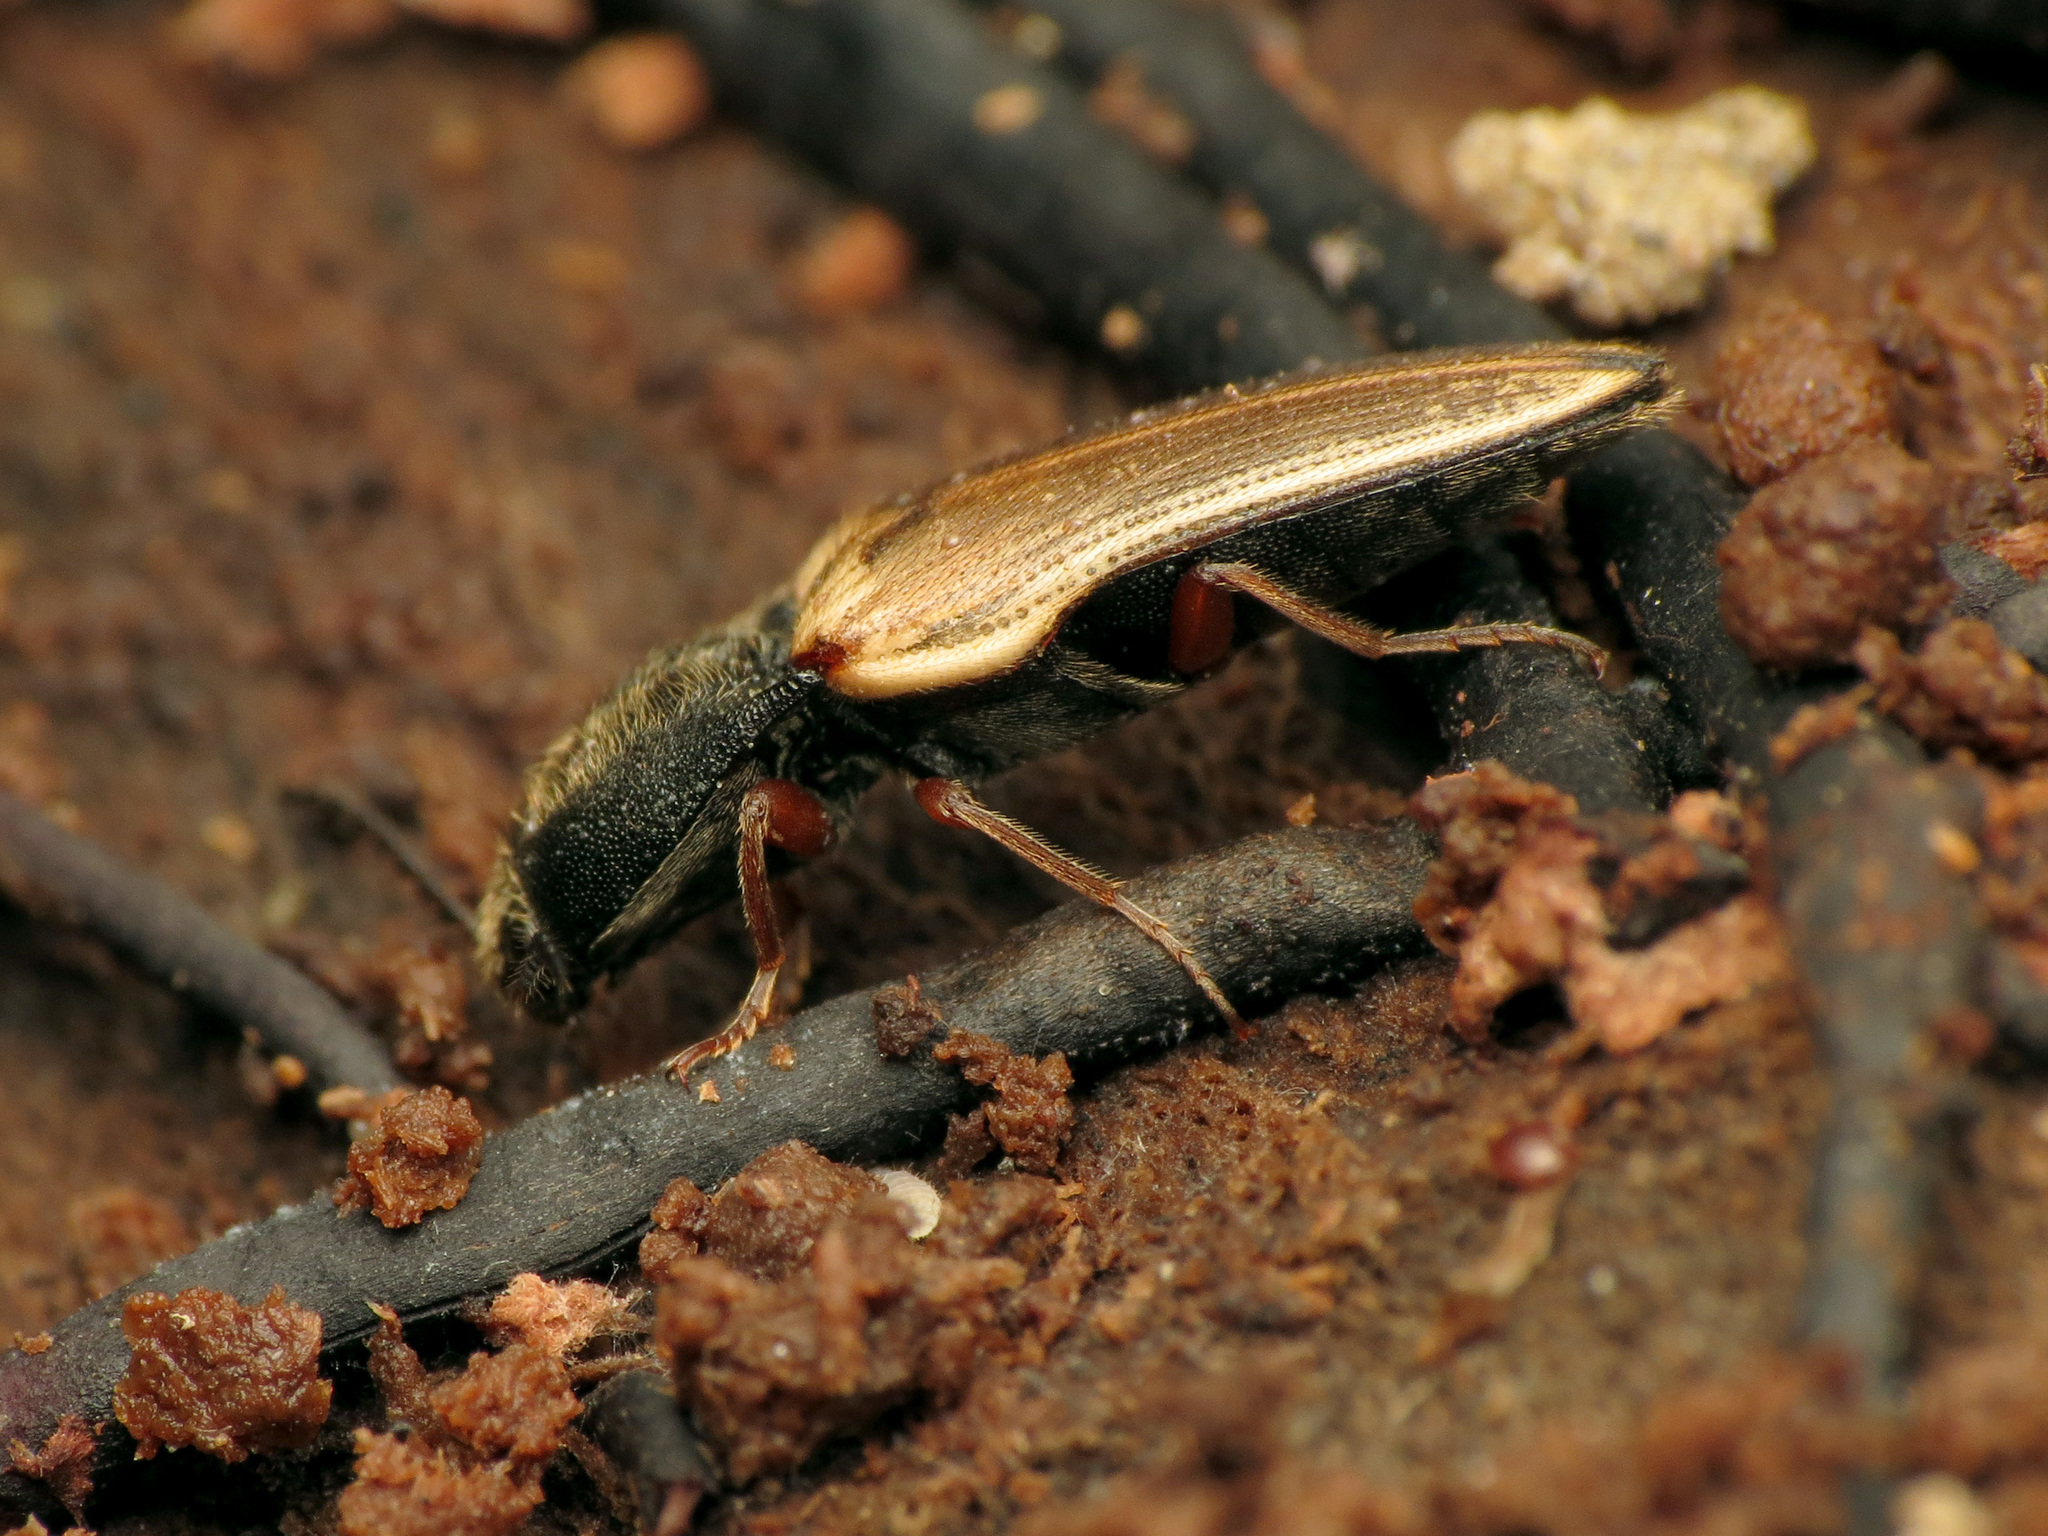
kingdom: Animalia
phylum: Arthropoda
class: Insecta
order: Coleoptera
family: Elateridae
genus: Ampedus
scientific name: Ampedus nigricollis
